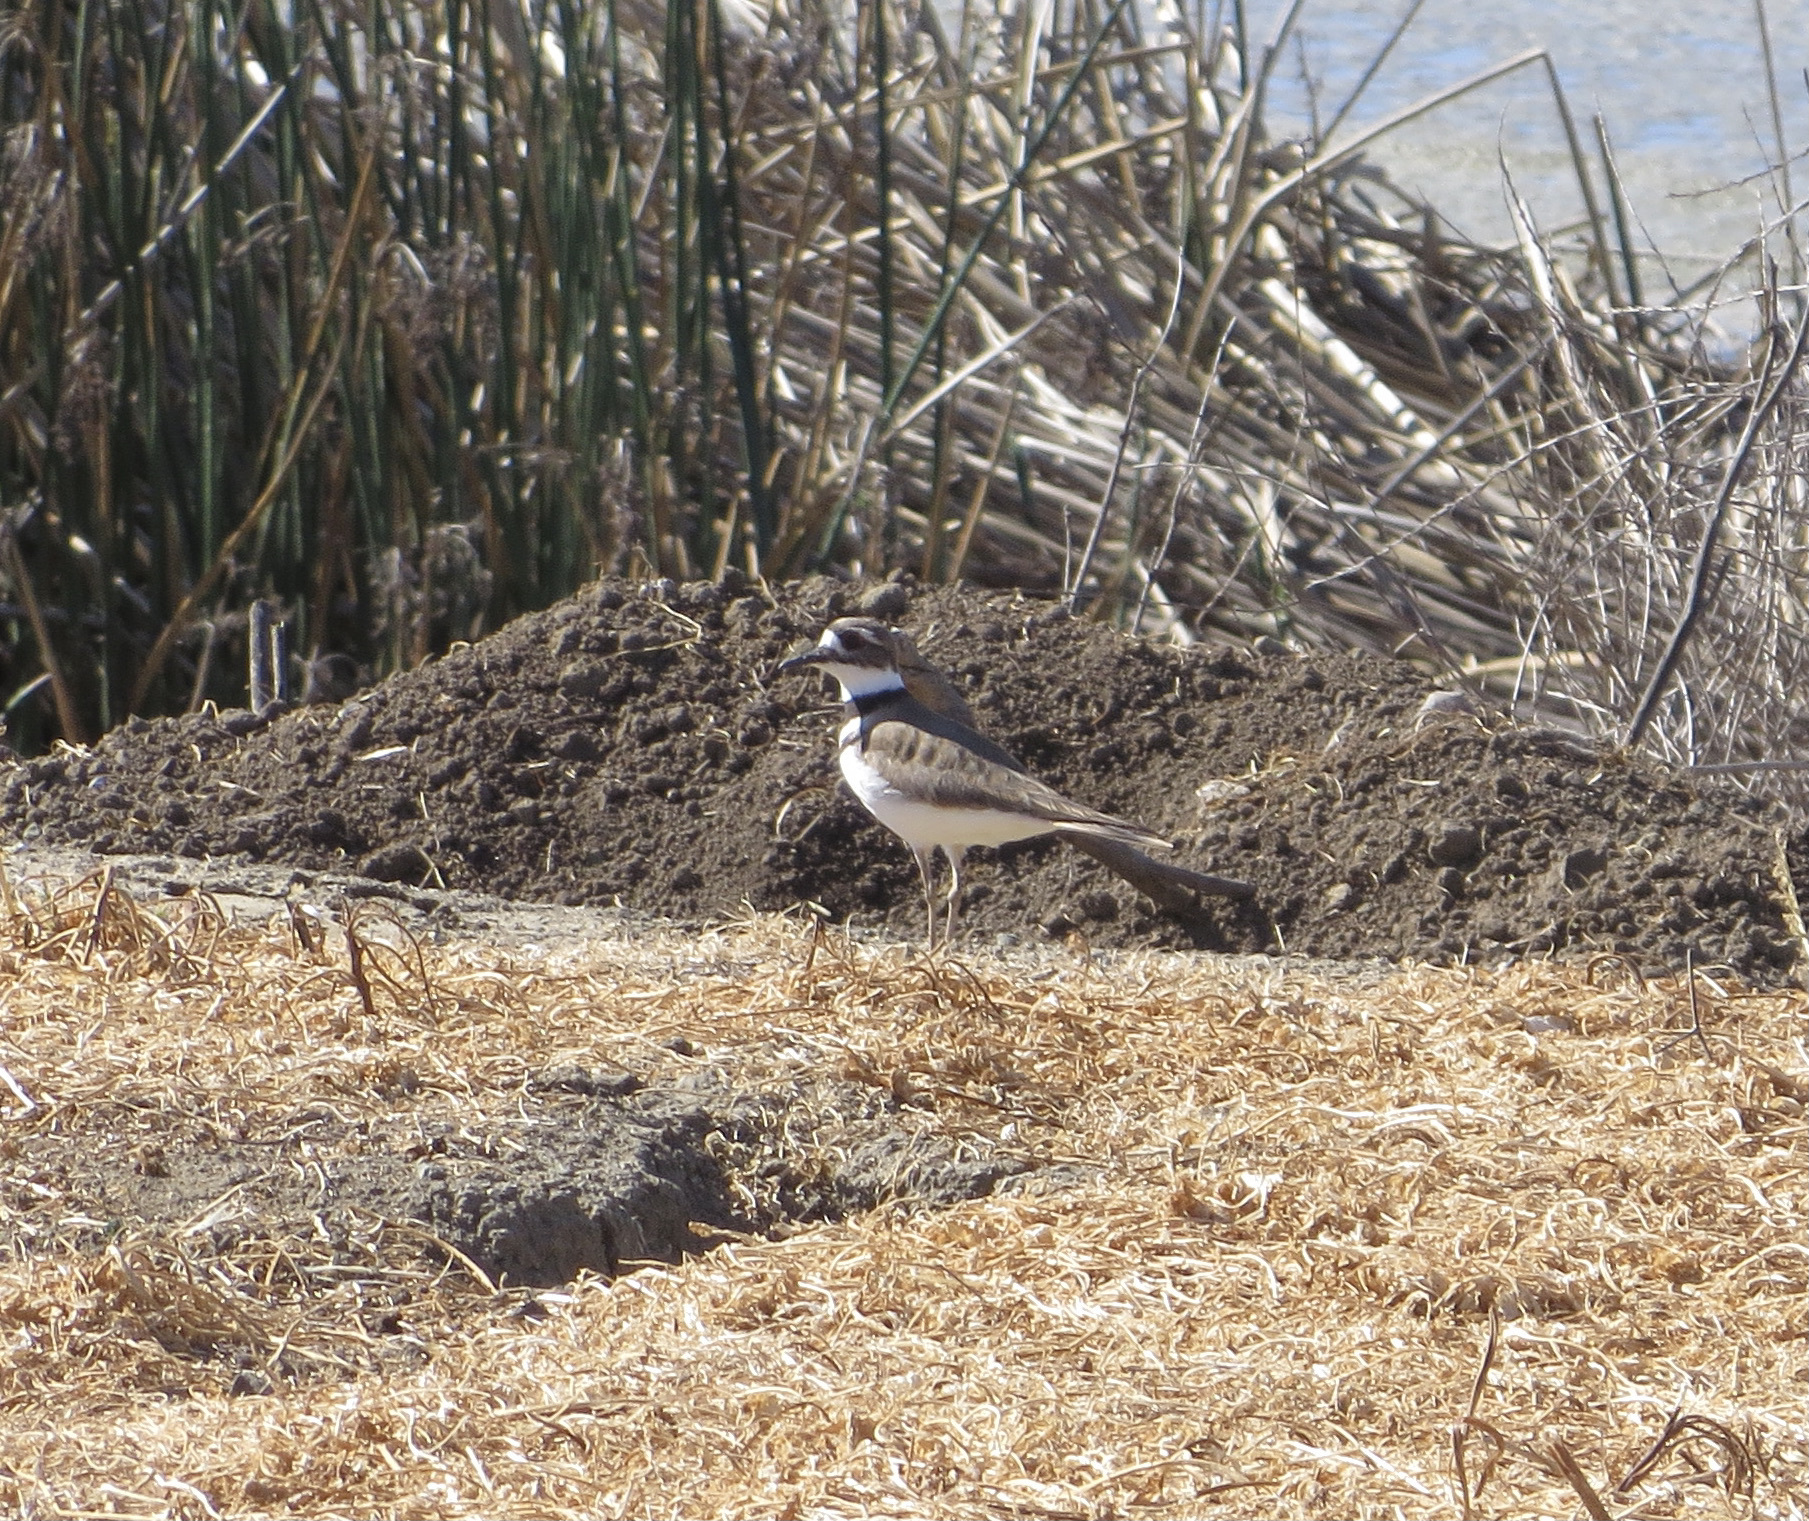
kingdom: Animalia
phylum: Chordata
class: Aves
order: Charadriiformes
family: Charadriidae
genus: Charadrius
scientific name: Charadrius vociferus
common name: Killdeer
